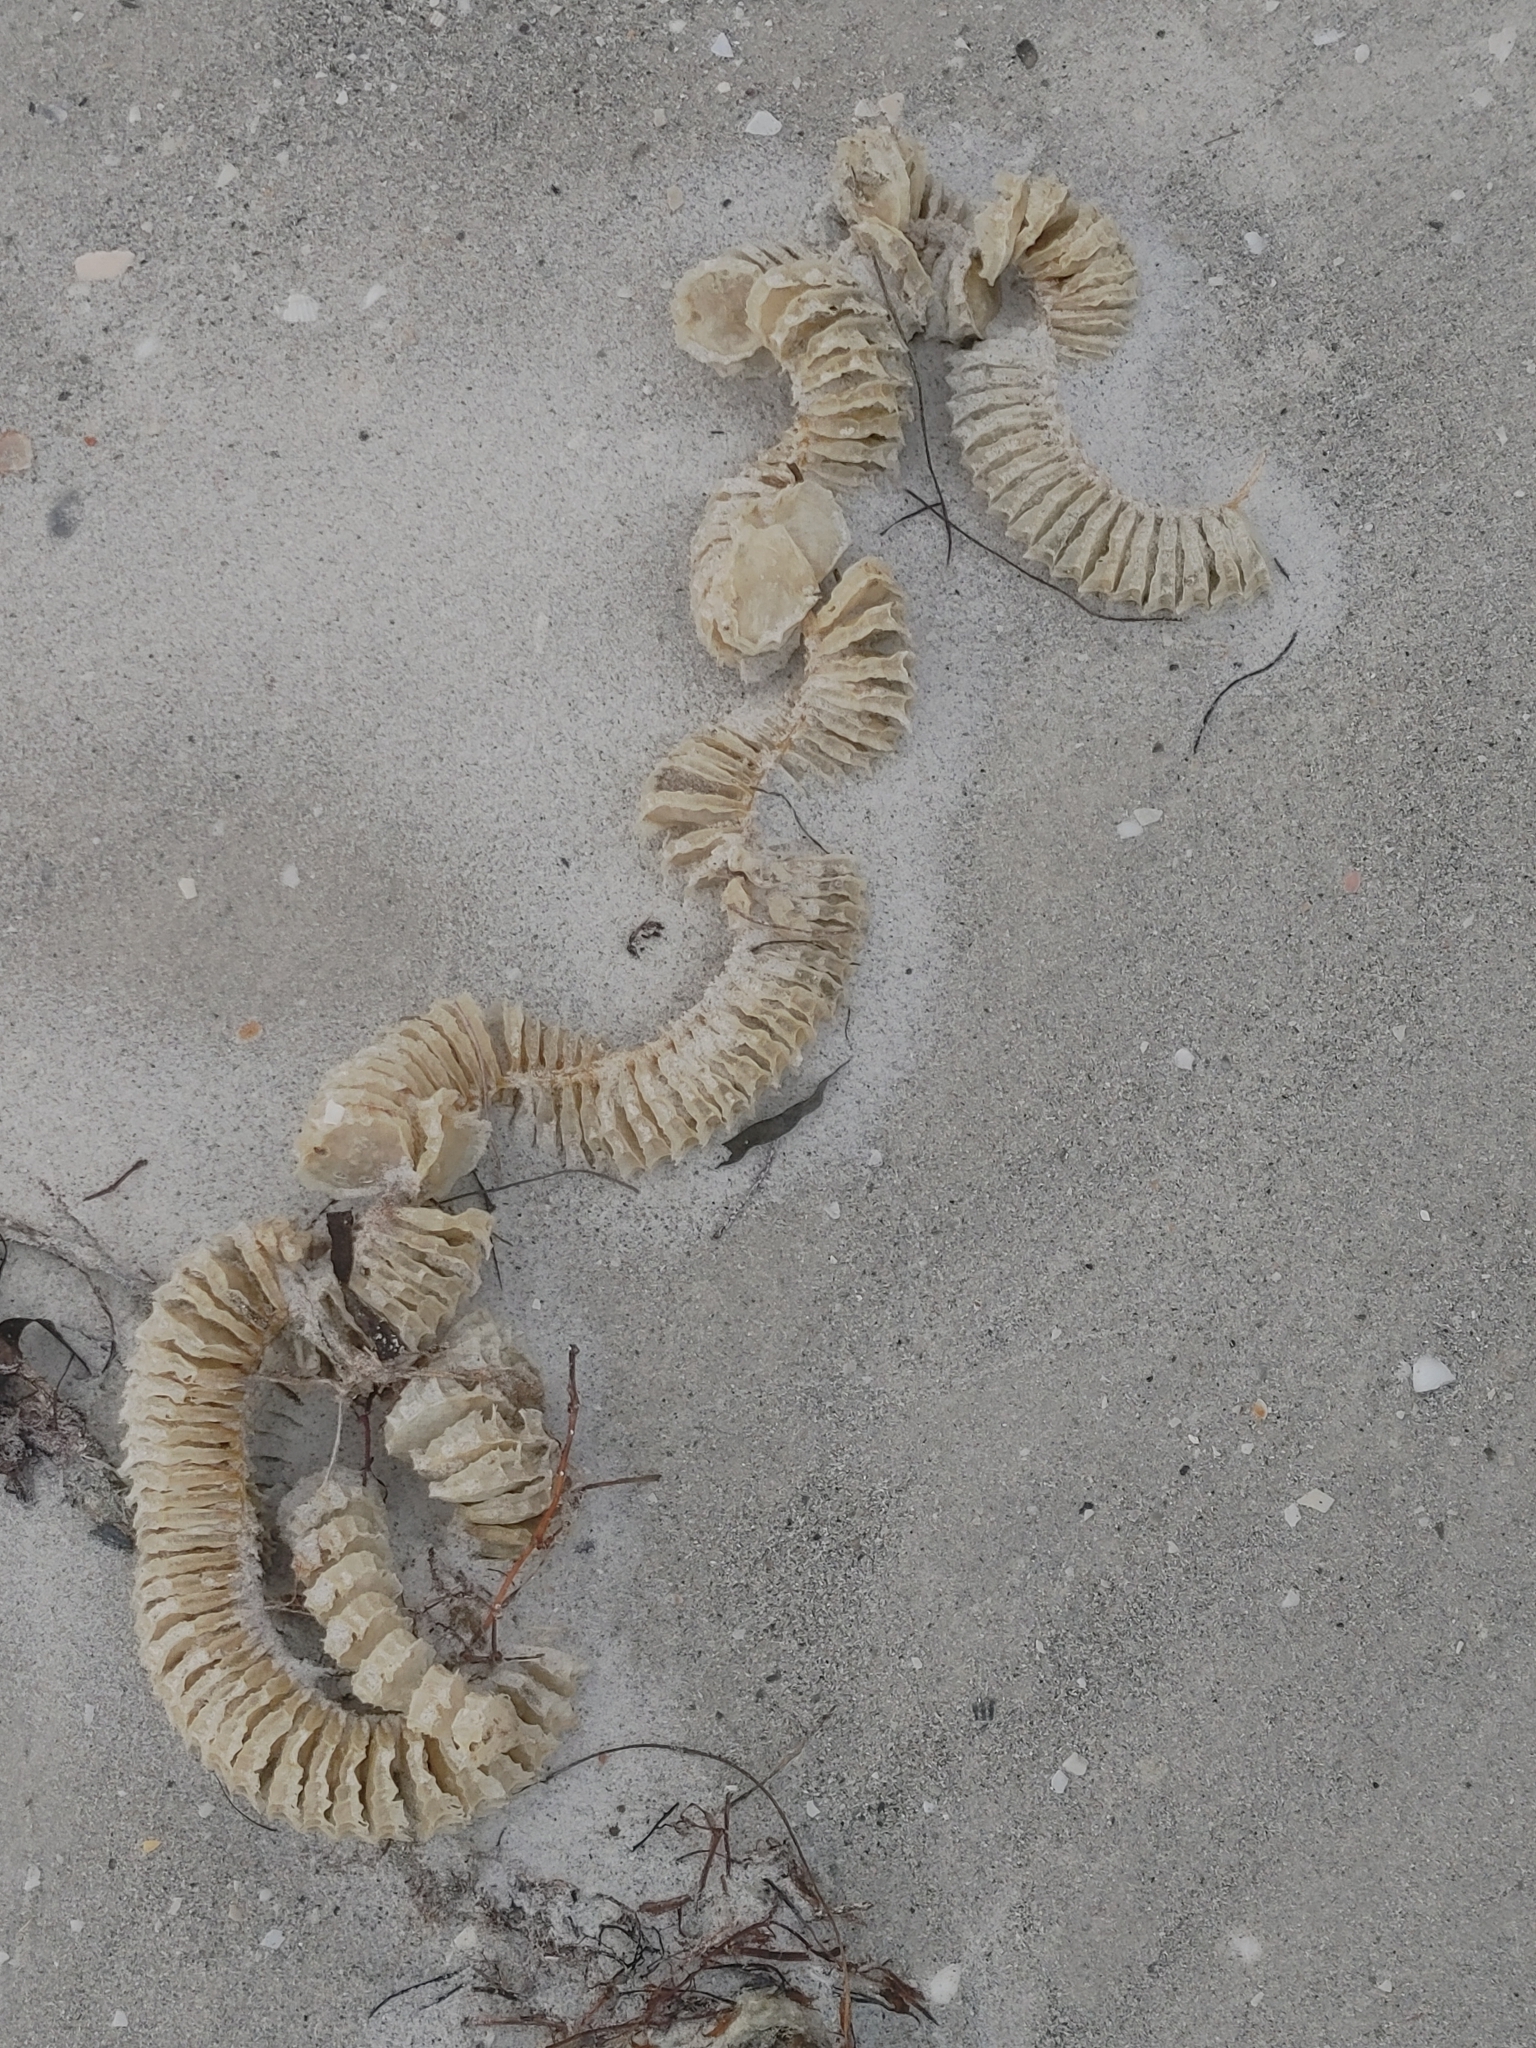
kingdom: Animalia
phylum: Mollusca
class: Gastropoda
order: Neogastropoda
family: Busyconidae
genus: Sinistrofulgur
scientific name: Sinistrofulgur sinistrum
